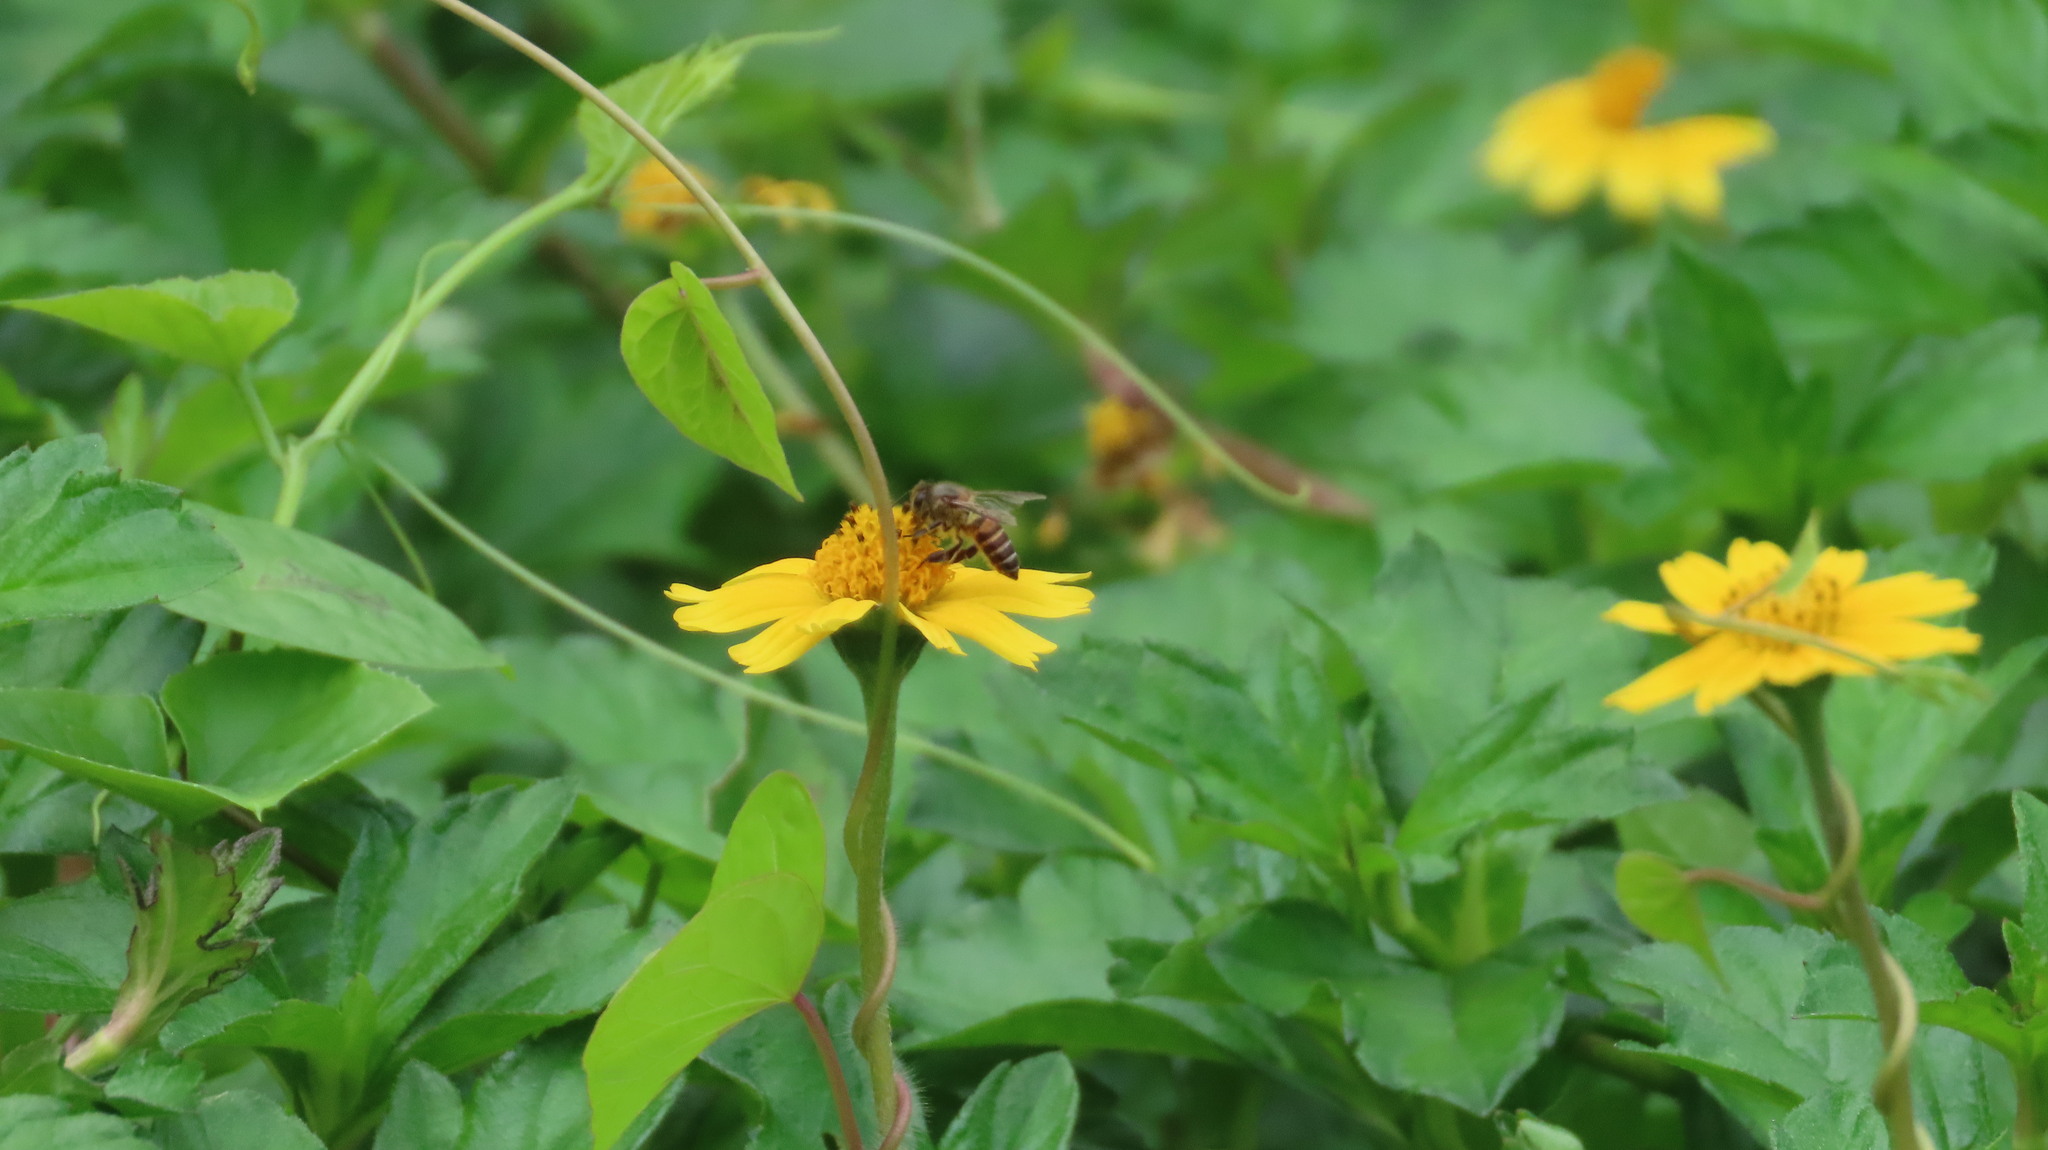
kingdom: Animalia
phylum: Arthropoda
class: Insecta
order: Hymenoptera
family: Apidae
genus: Apis
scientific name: Apis cerana
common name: Honey bee
